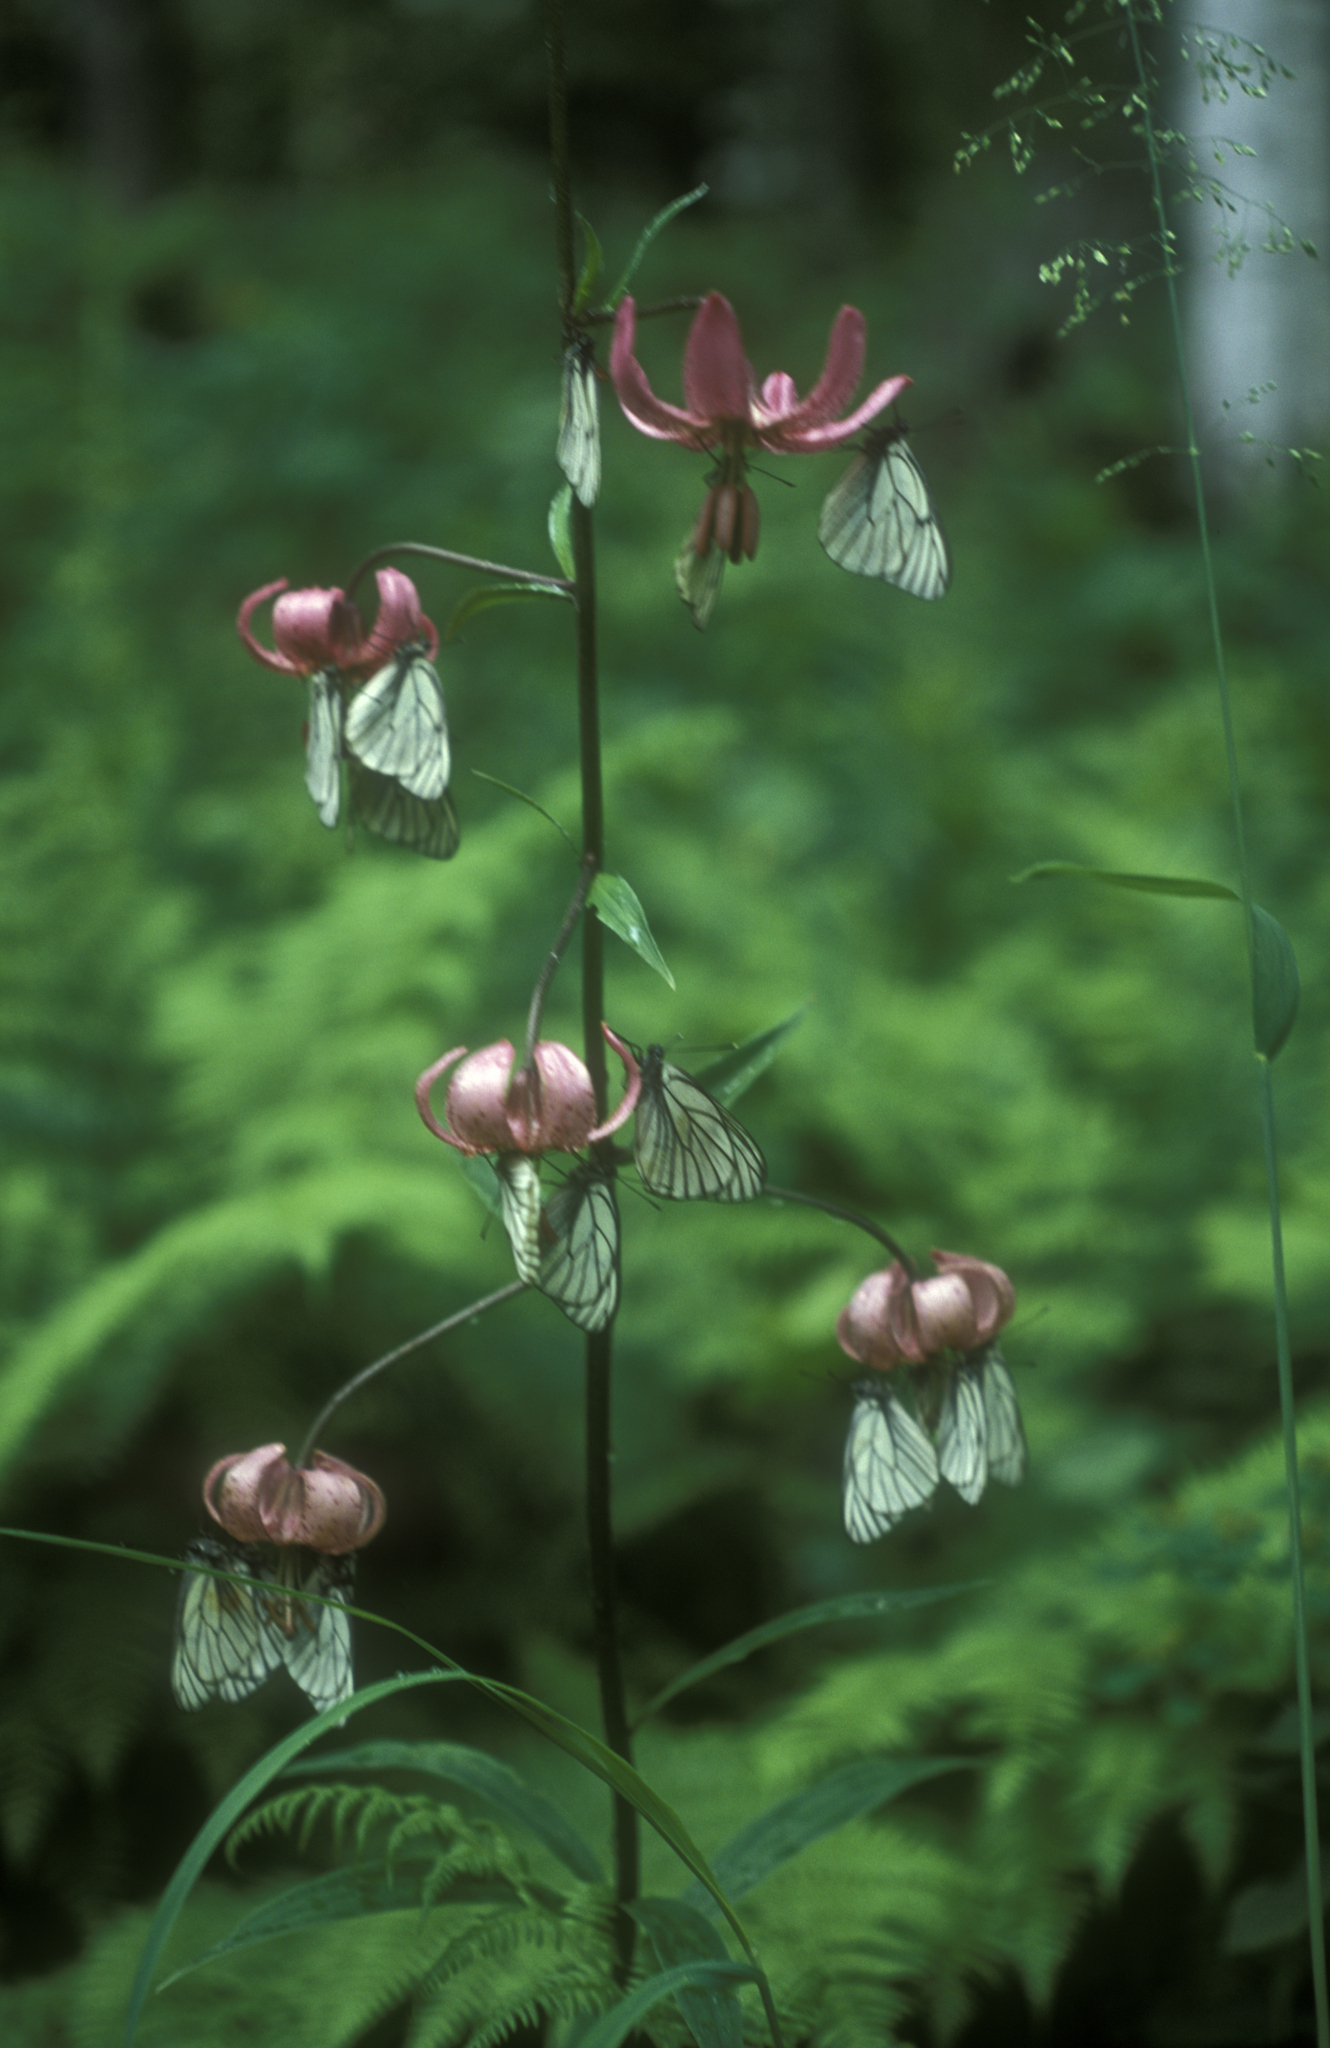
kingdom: Plantae
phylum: Tracheophyta
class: Liliopsida
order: Liliales
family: Liliaceae
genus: Lilium
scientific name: Lilium martagon
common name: Martagon lily
